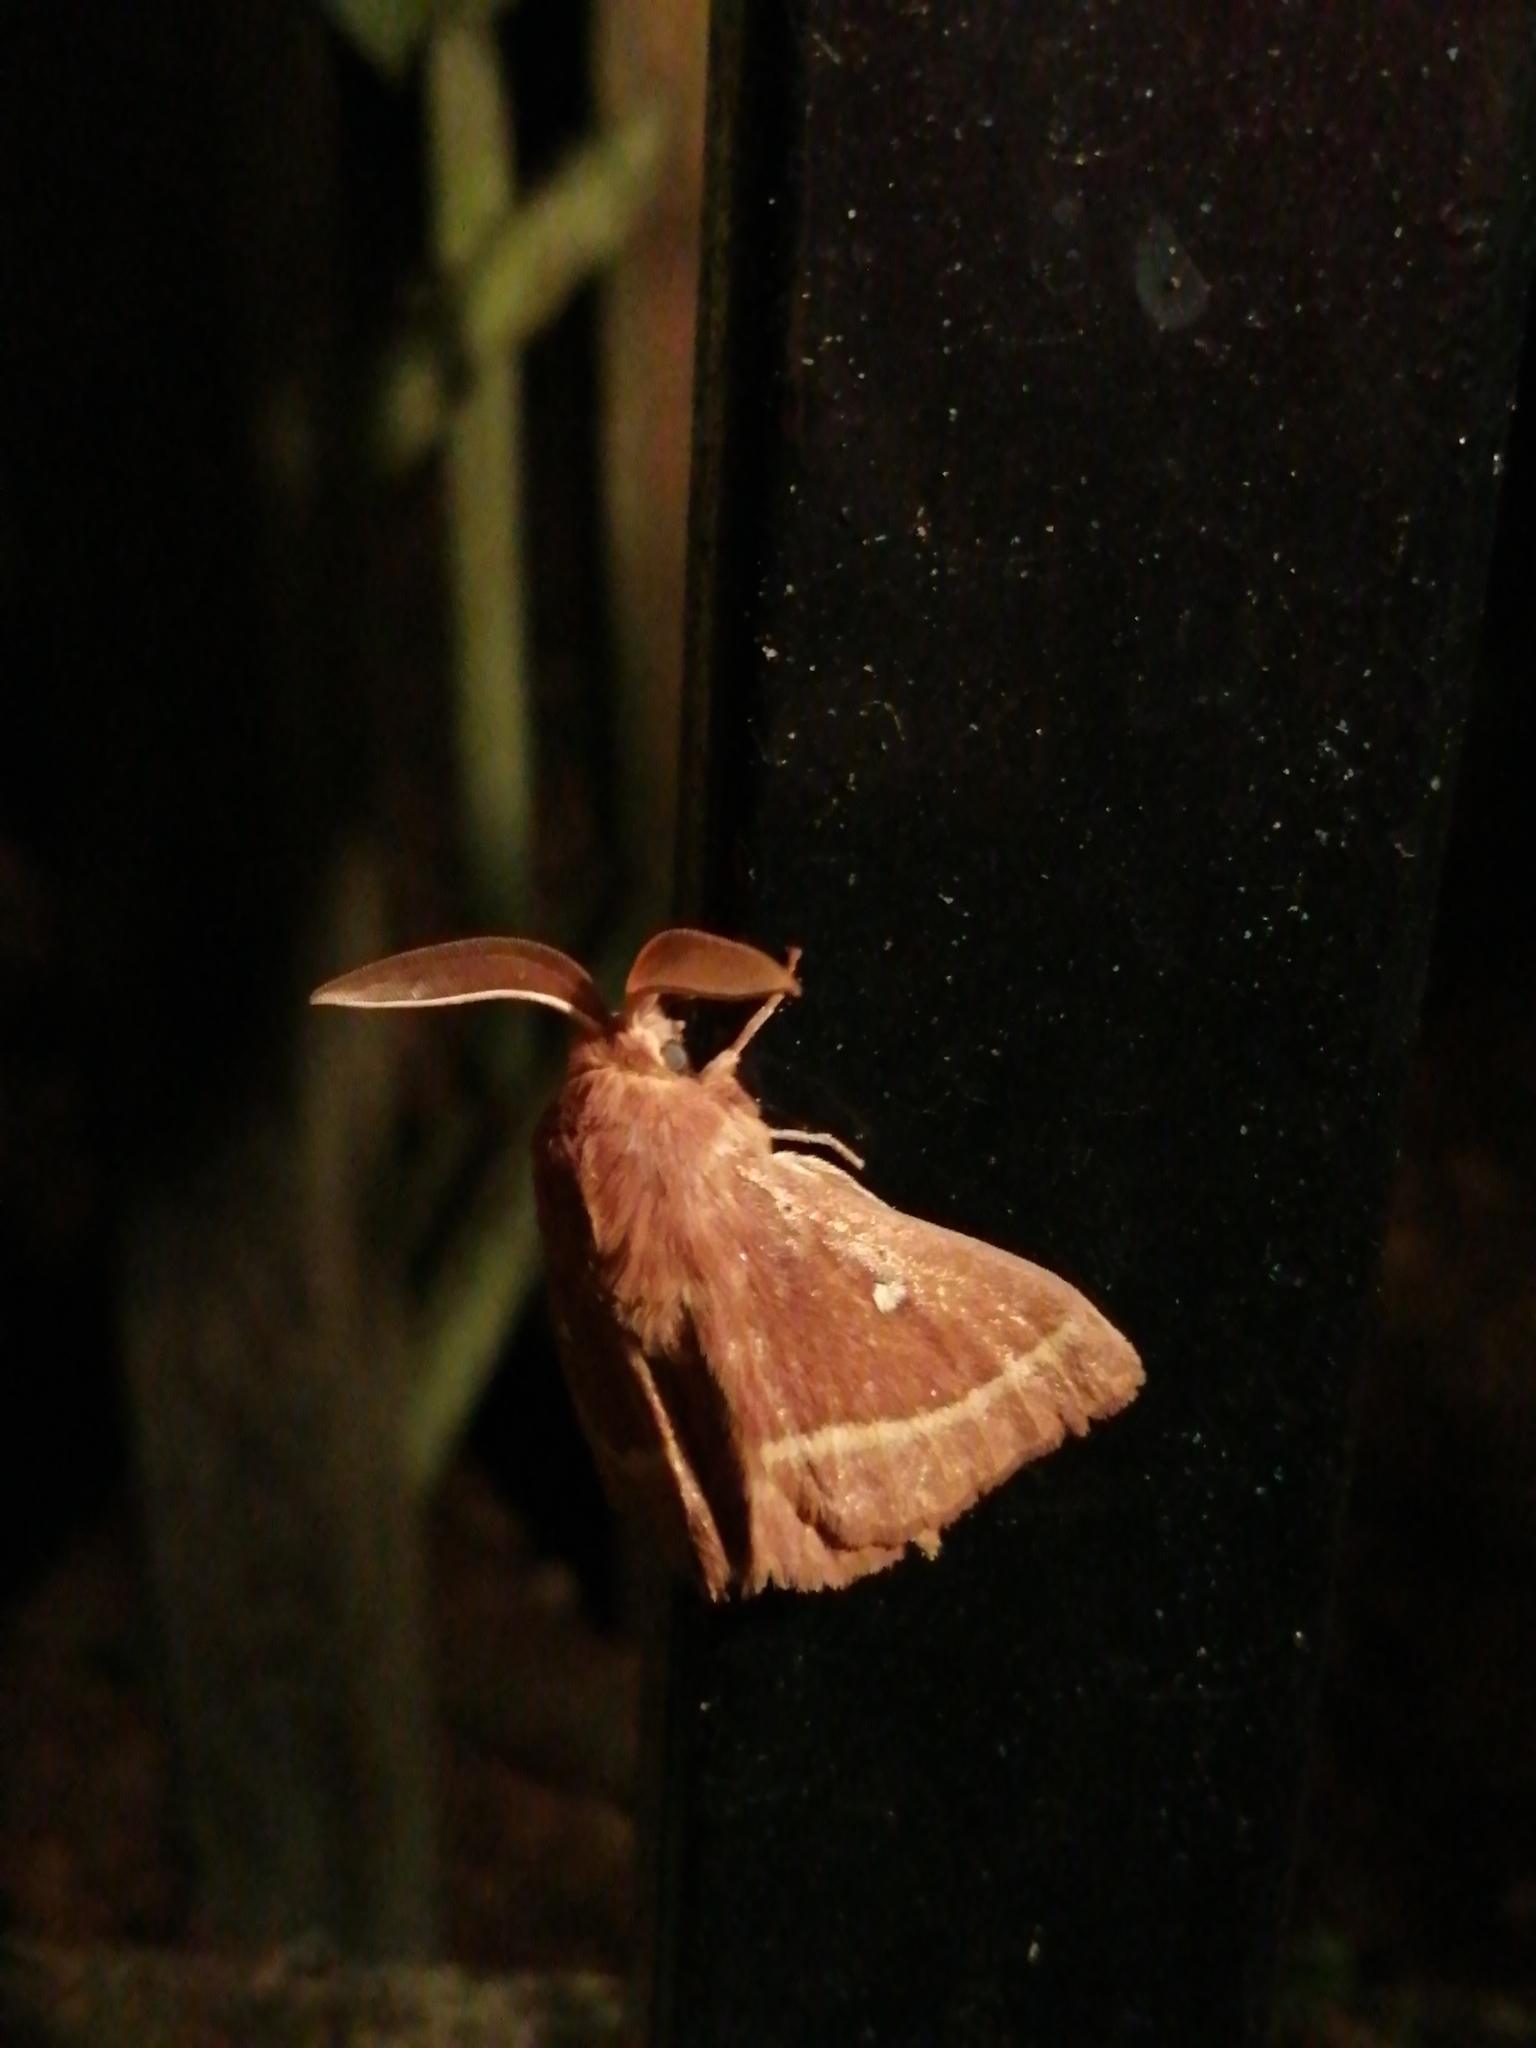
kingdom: Animalia
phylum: Arthropoda
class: Insecta
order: Lepidoptera
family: Lasiocampidae
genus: Lasiocampa
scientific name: Lasiocampa trifolii
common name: Grass eggar
